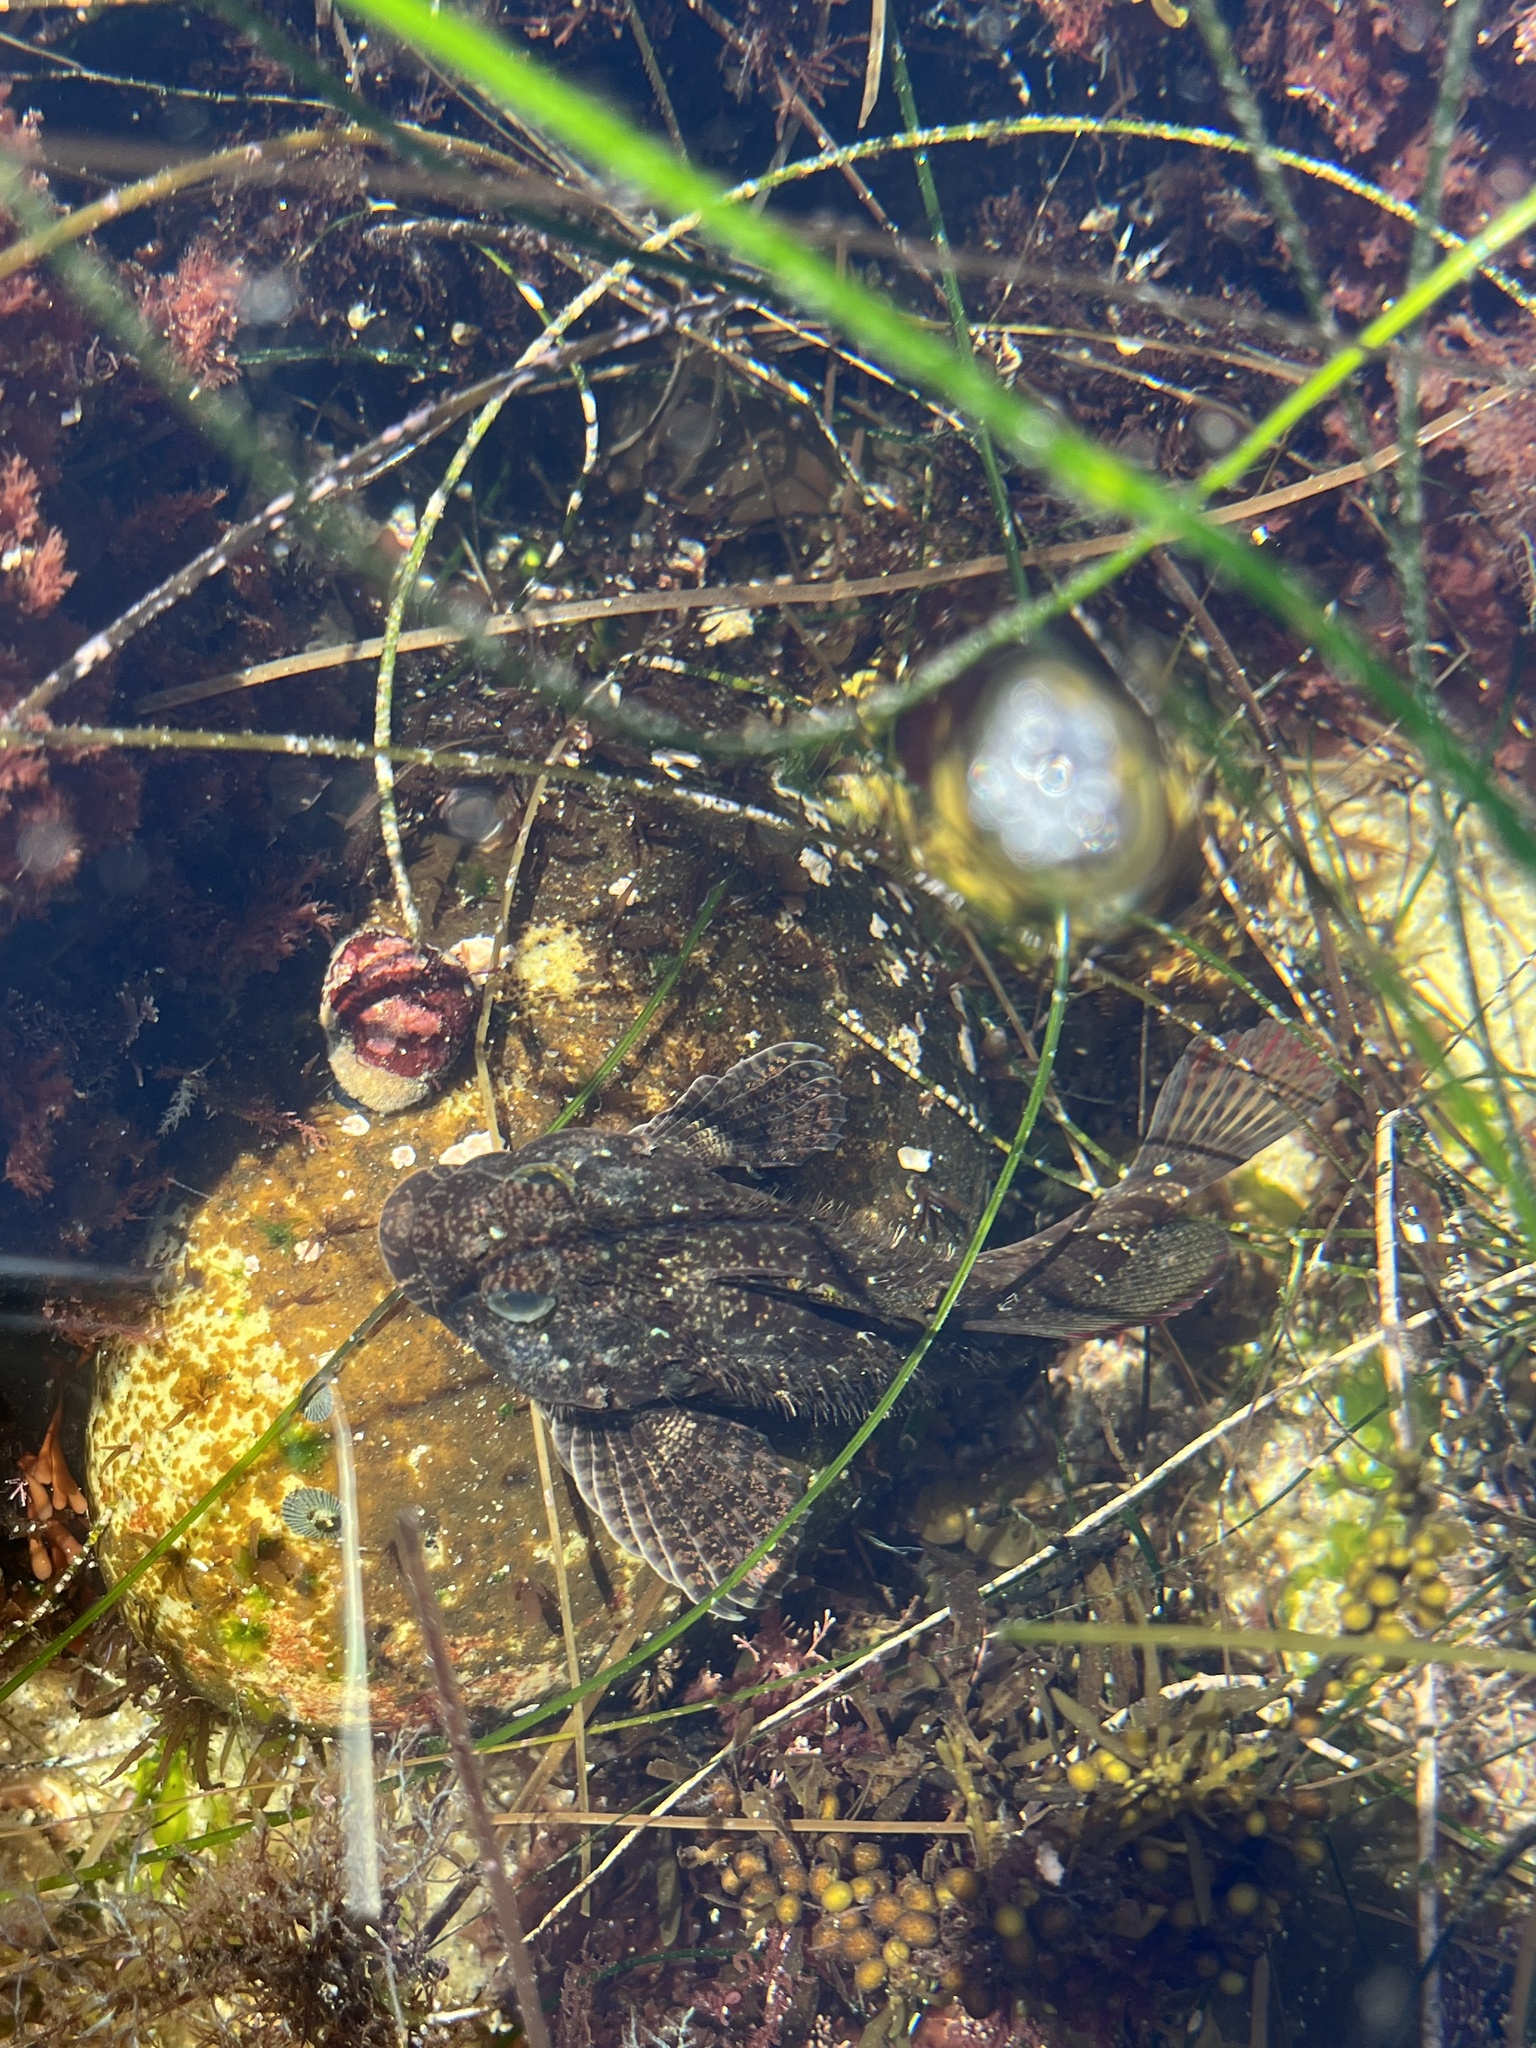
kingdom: Animalia
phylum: Chordata
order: Scorpaeniformes
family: Cottidae
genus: Clinocottus
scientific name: Clinocottus analis
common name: Woolly sculpin
